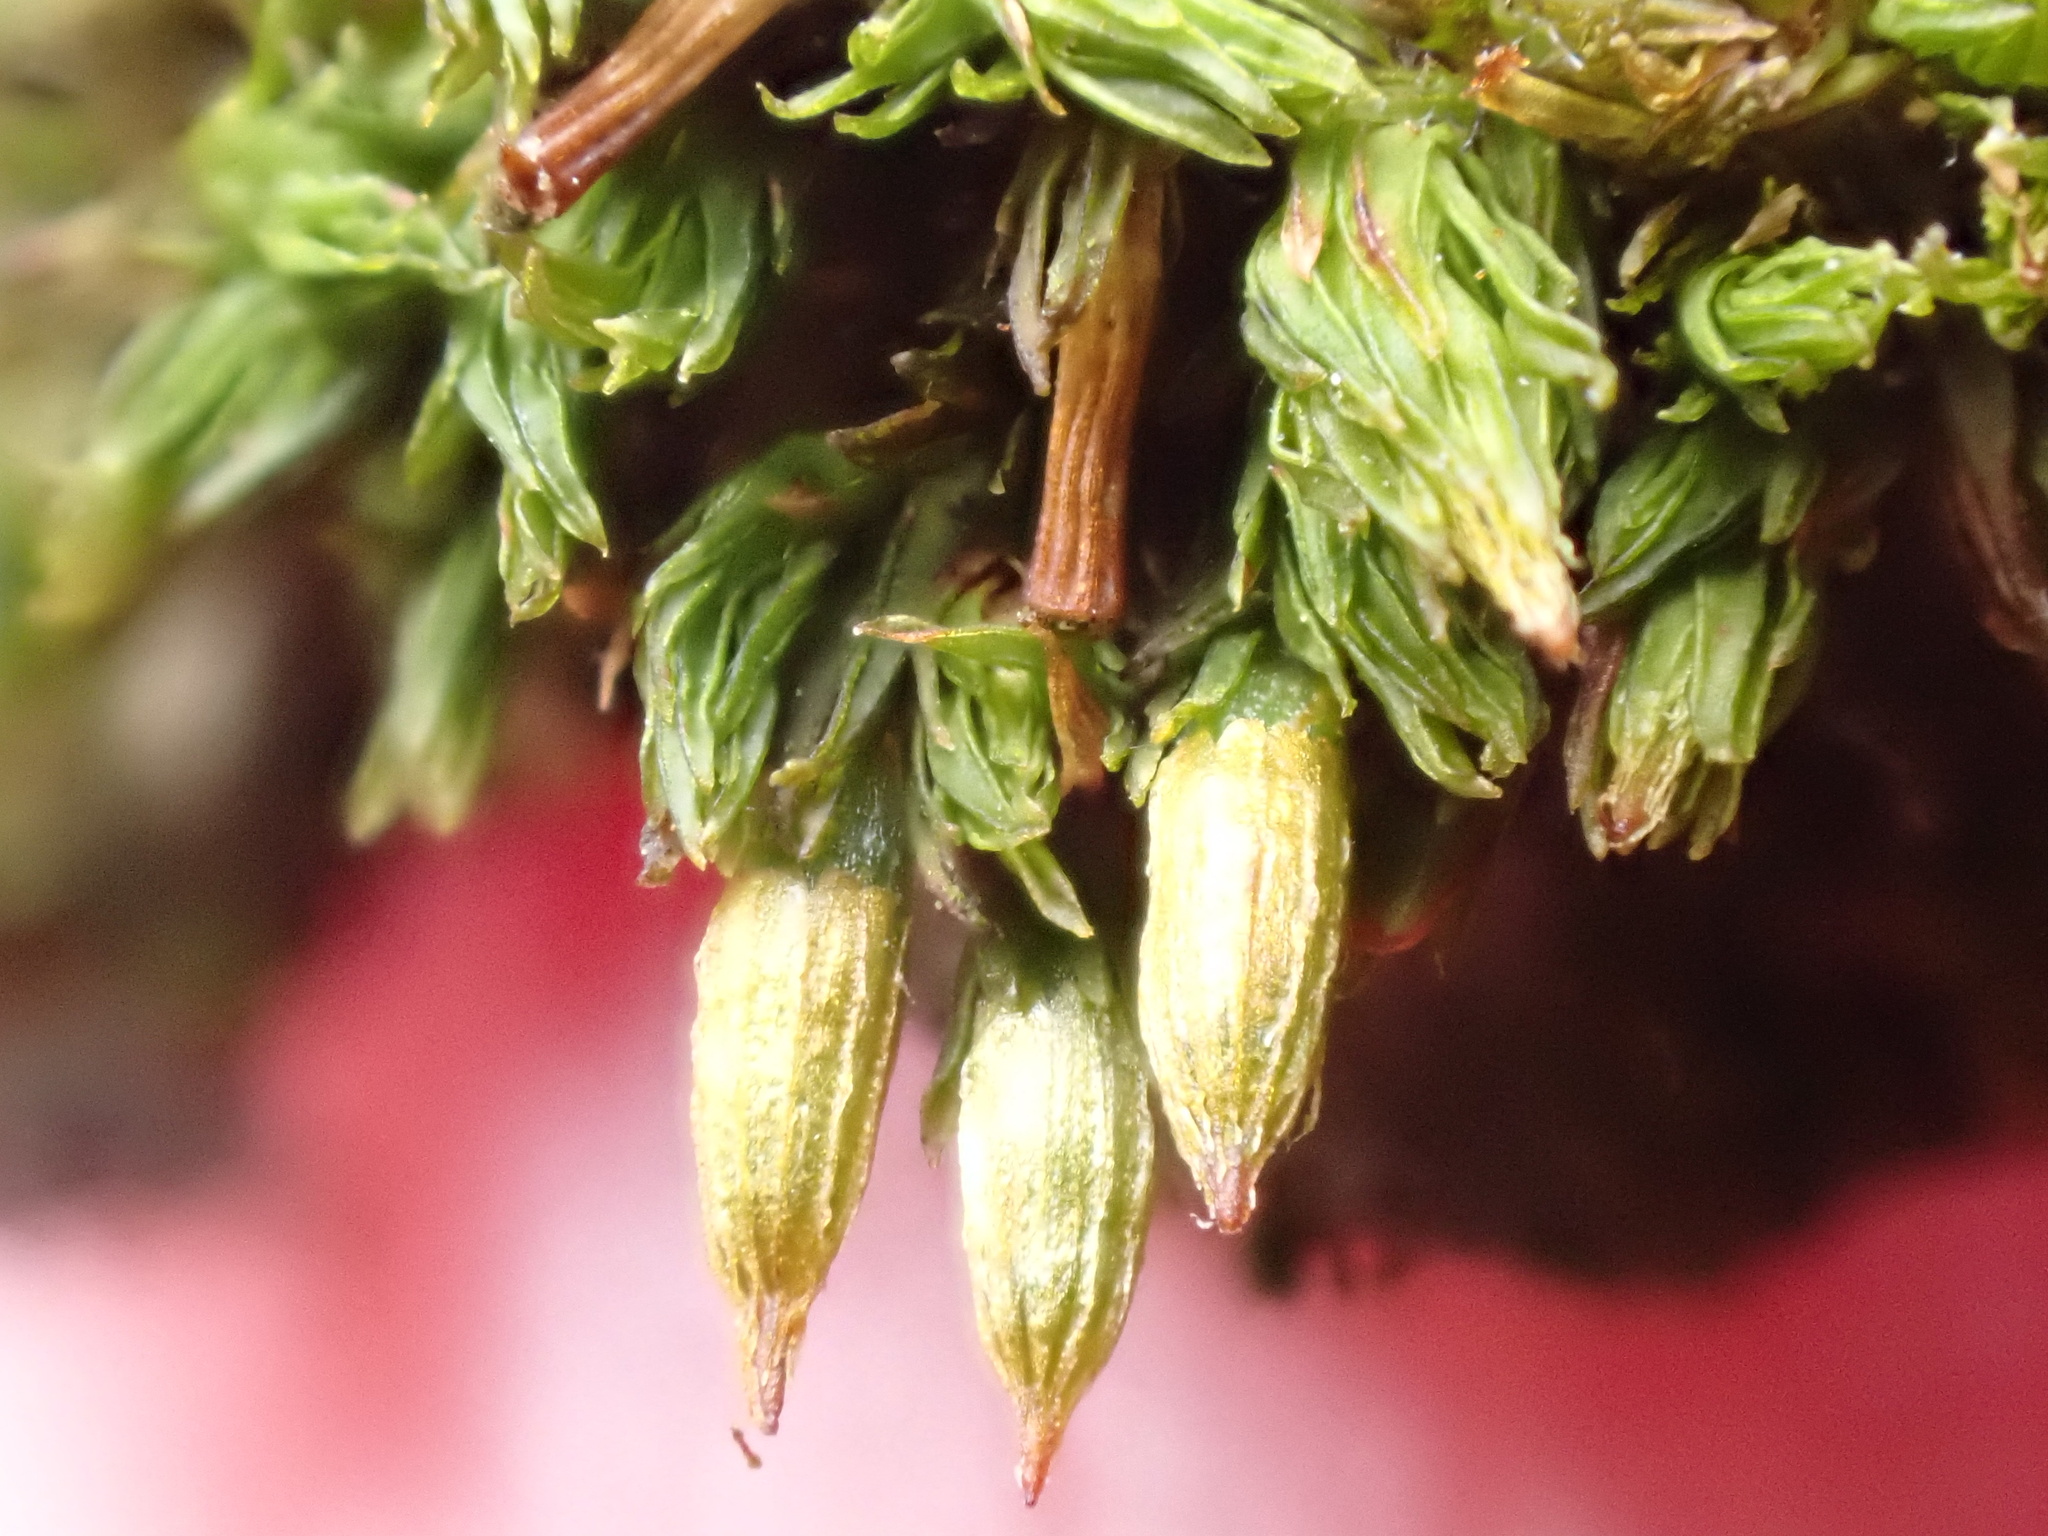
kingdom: Plantae
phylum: Bryophyta
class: Bryopsida
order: Orthotrichales
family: Orthotrichaceae
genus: Orthotrichum
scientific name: Orthotrichum tenellum
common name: Slender bristle-moss
